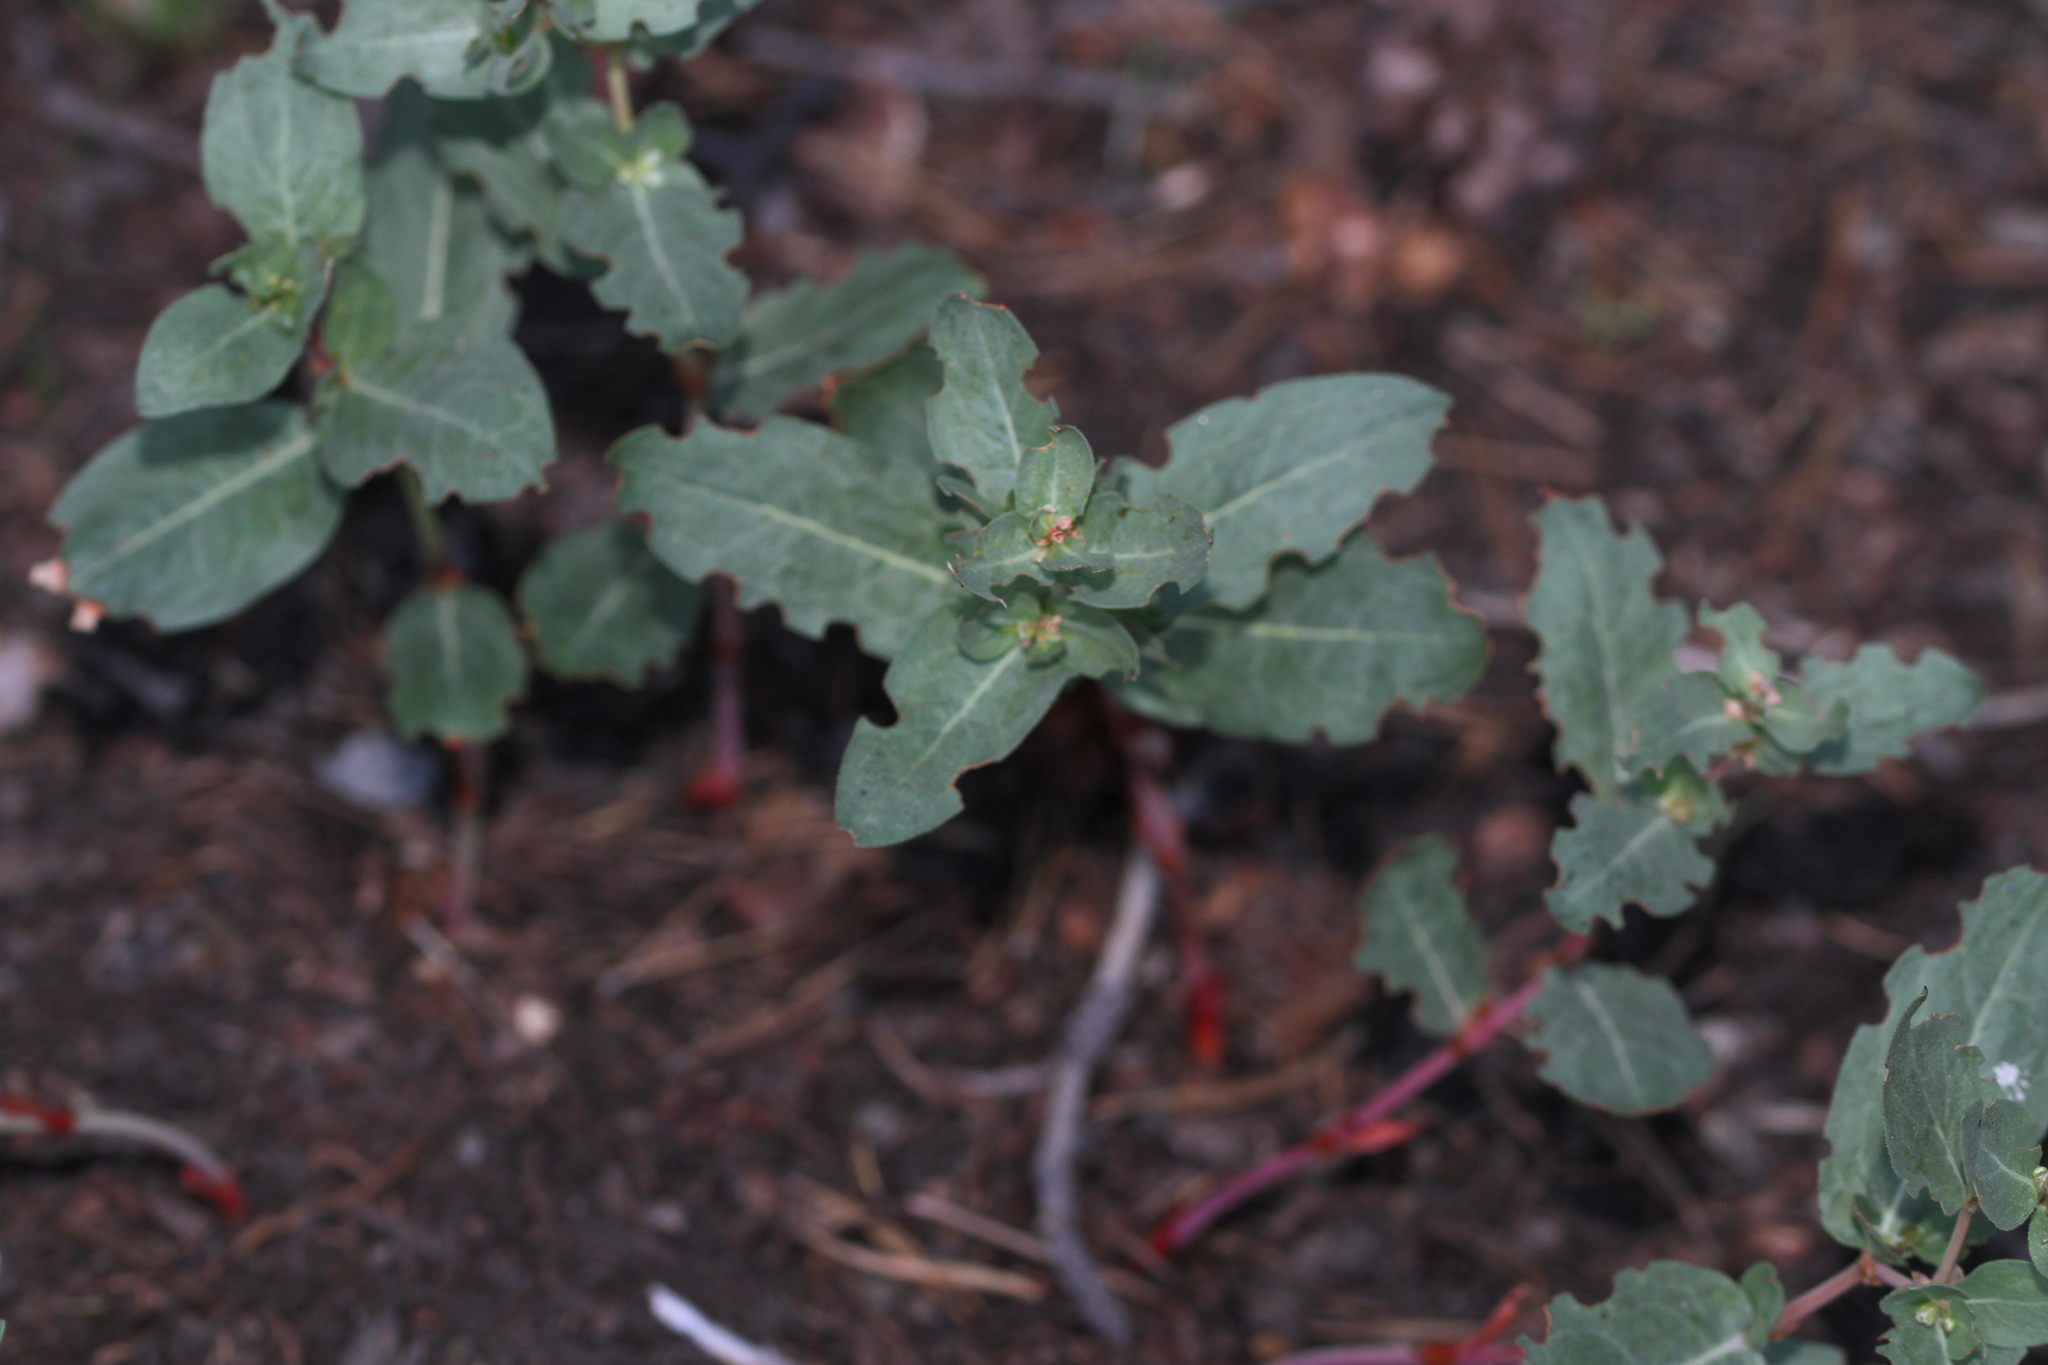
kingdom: Plantae
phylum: Tracheophyta
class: Magnoliopsida
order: Caryophyllales
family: Polygonaceae
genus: Koenigia
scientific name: Koenigia davisiae
